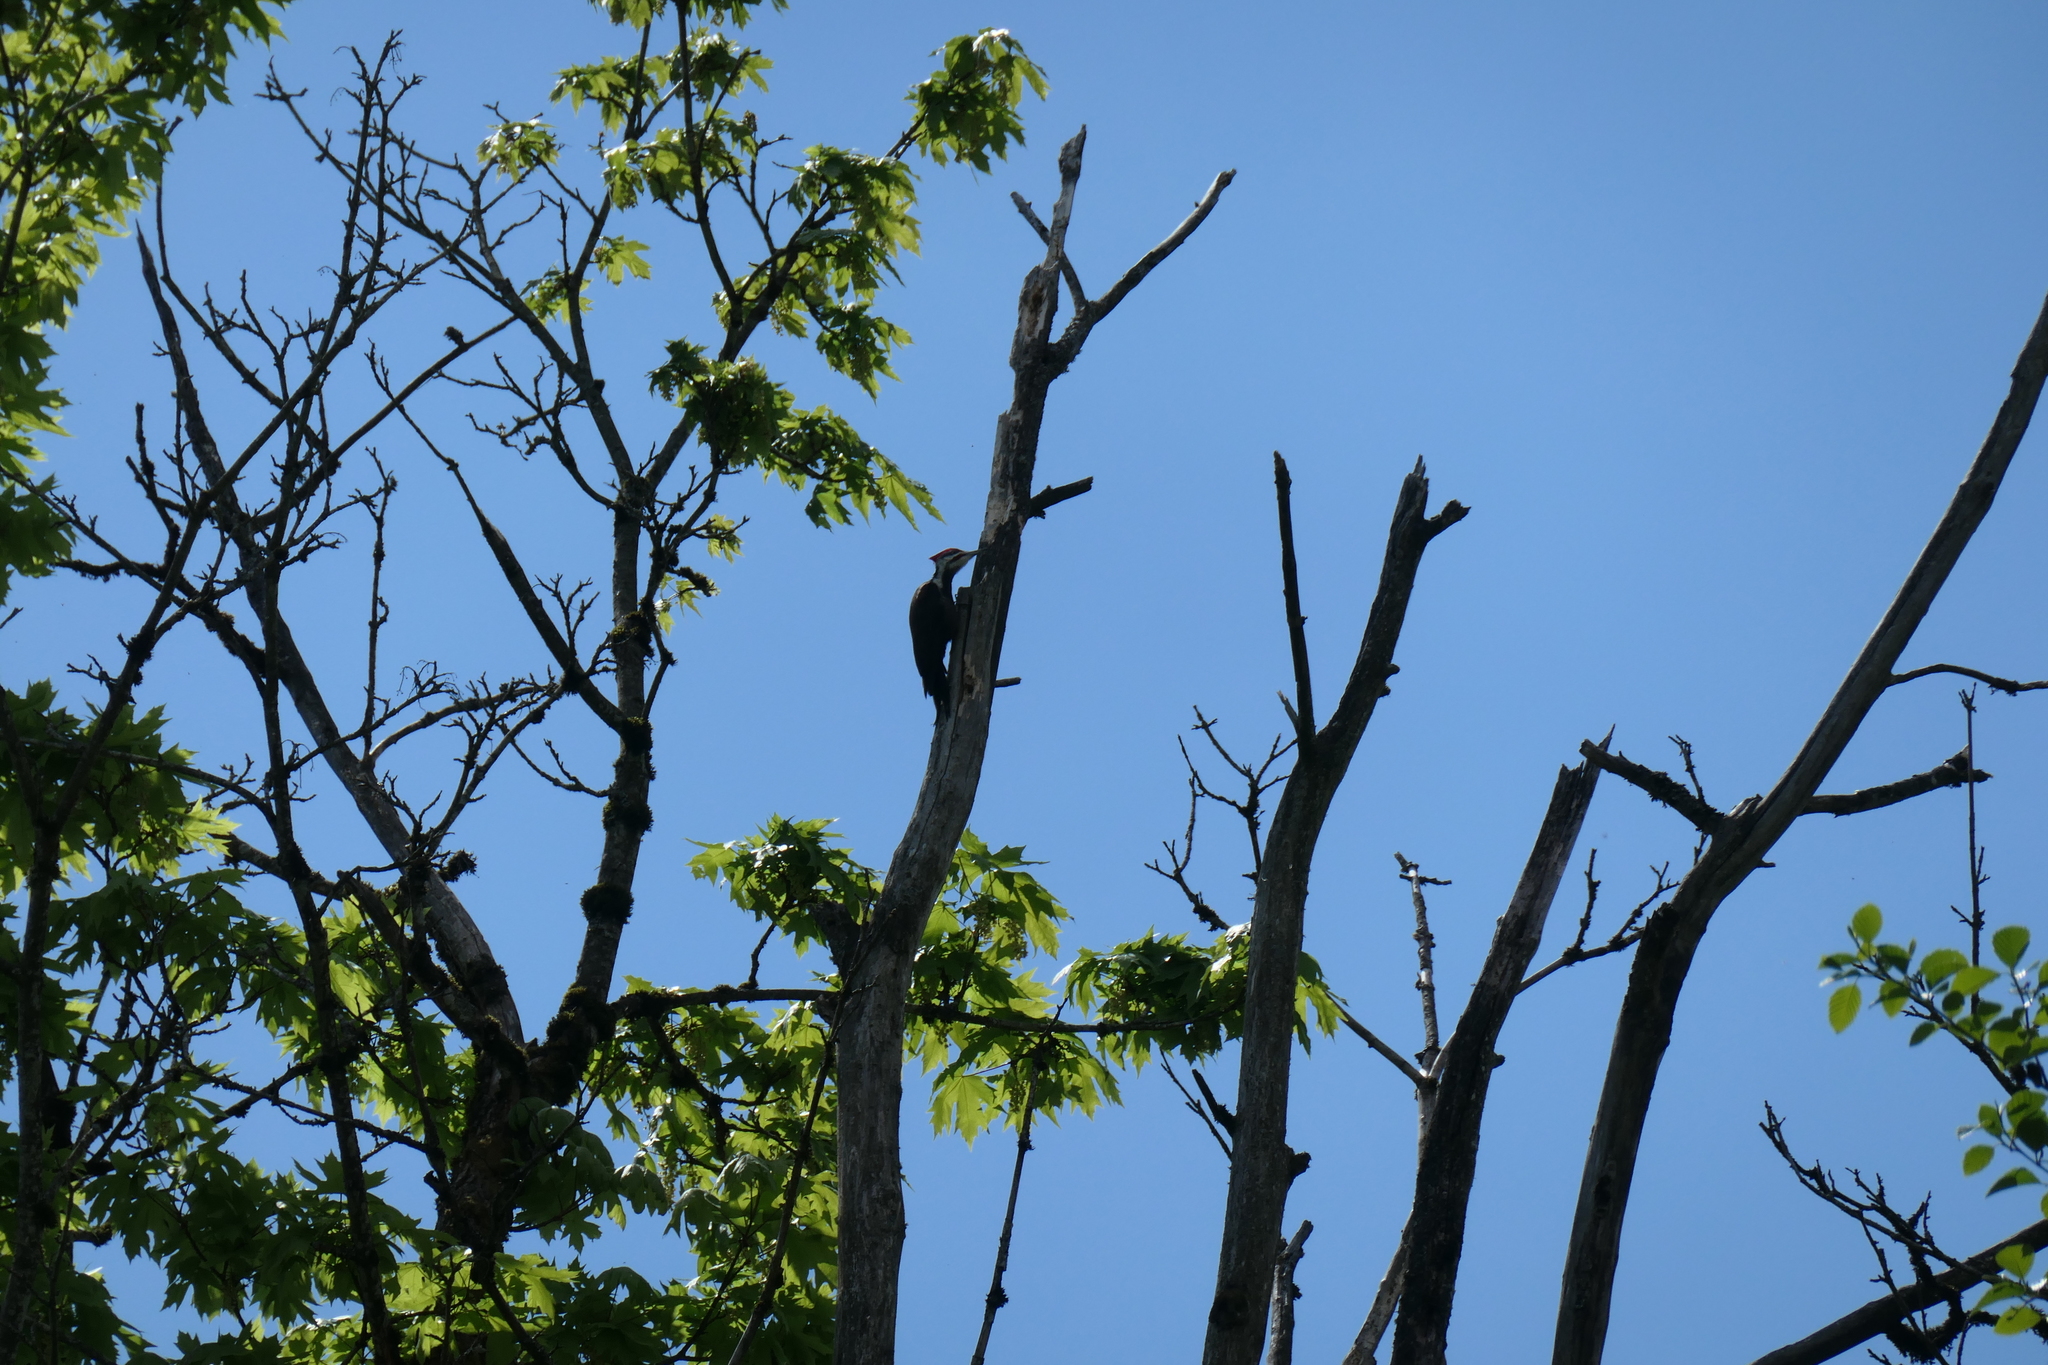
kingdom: Animalia
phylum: Chordata
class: Aves
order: Piciformes
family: Picidae
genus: Dryocopus
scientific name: Dryocopus pileatus
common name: Pileated woodpecker
